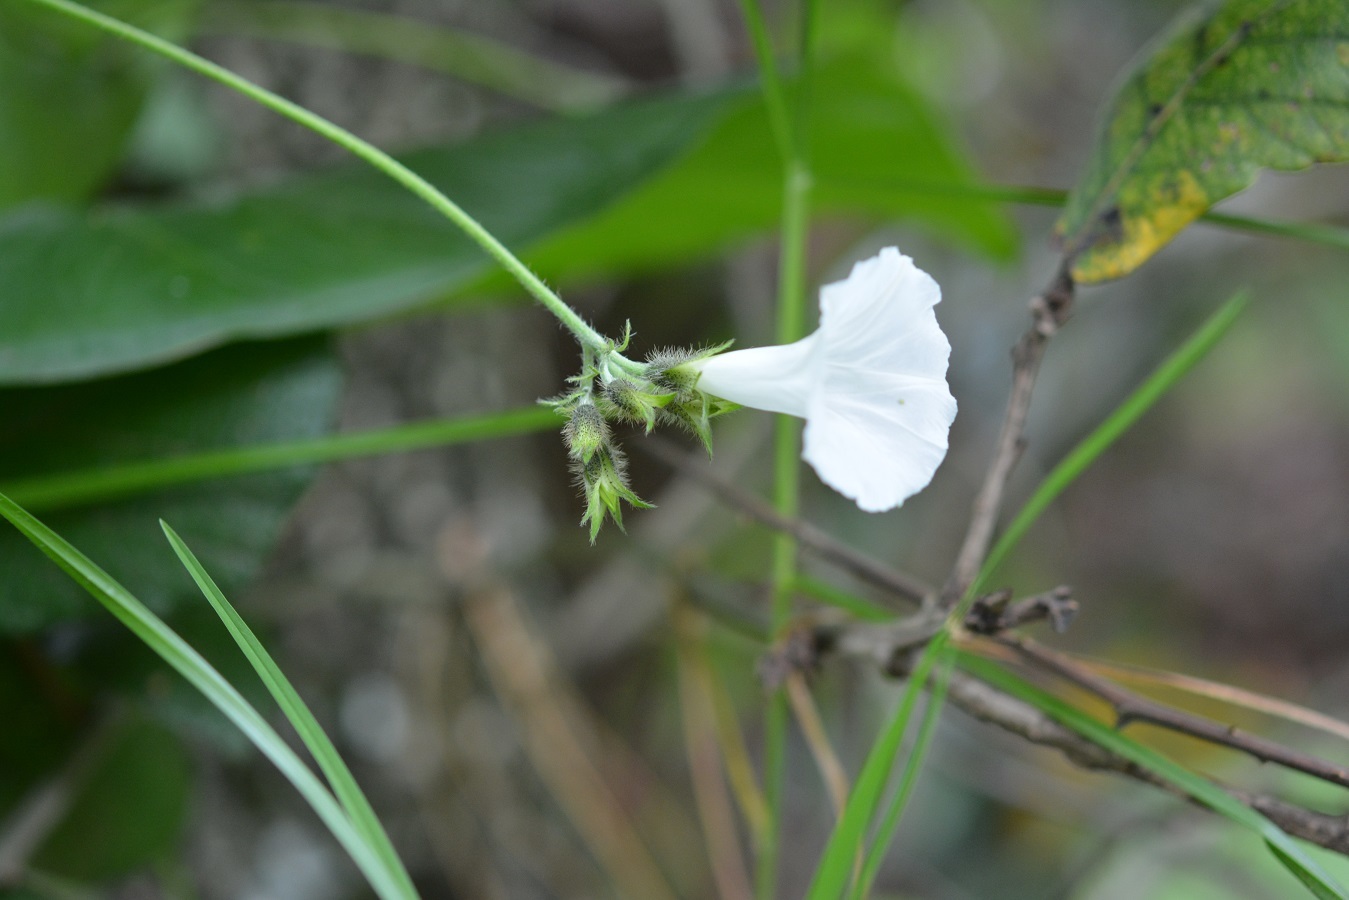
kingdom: Plantae
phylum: Tracheophyta
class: Magnoliopsida
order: Solanales
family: Convolvulaceae
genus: Ipomoea
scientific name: Ipomoea purpurea
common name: Common morning-glory
